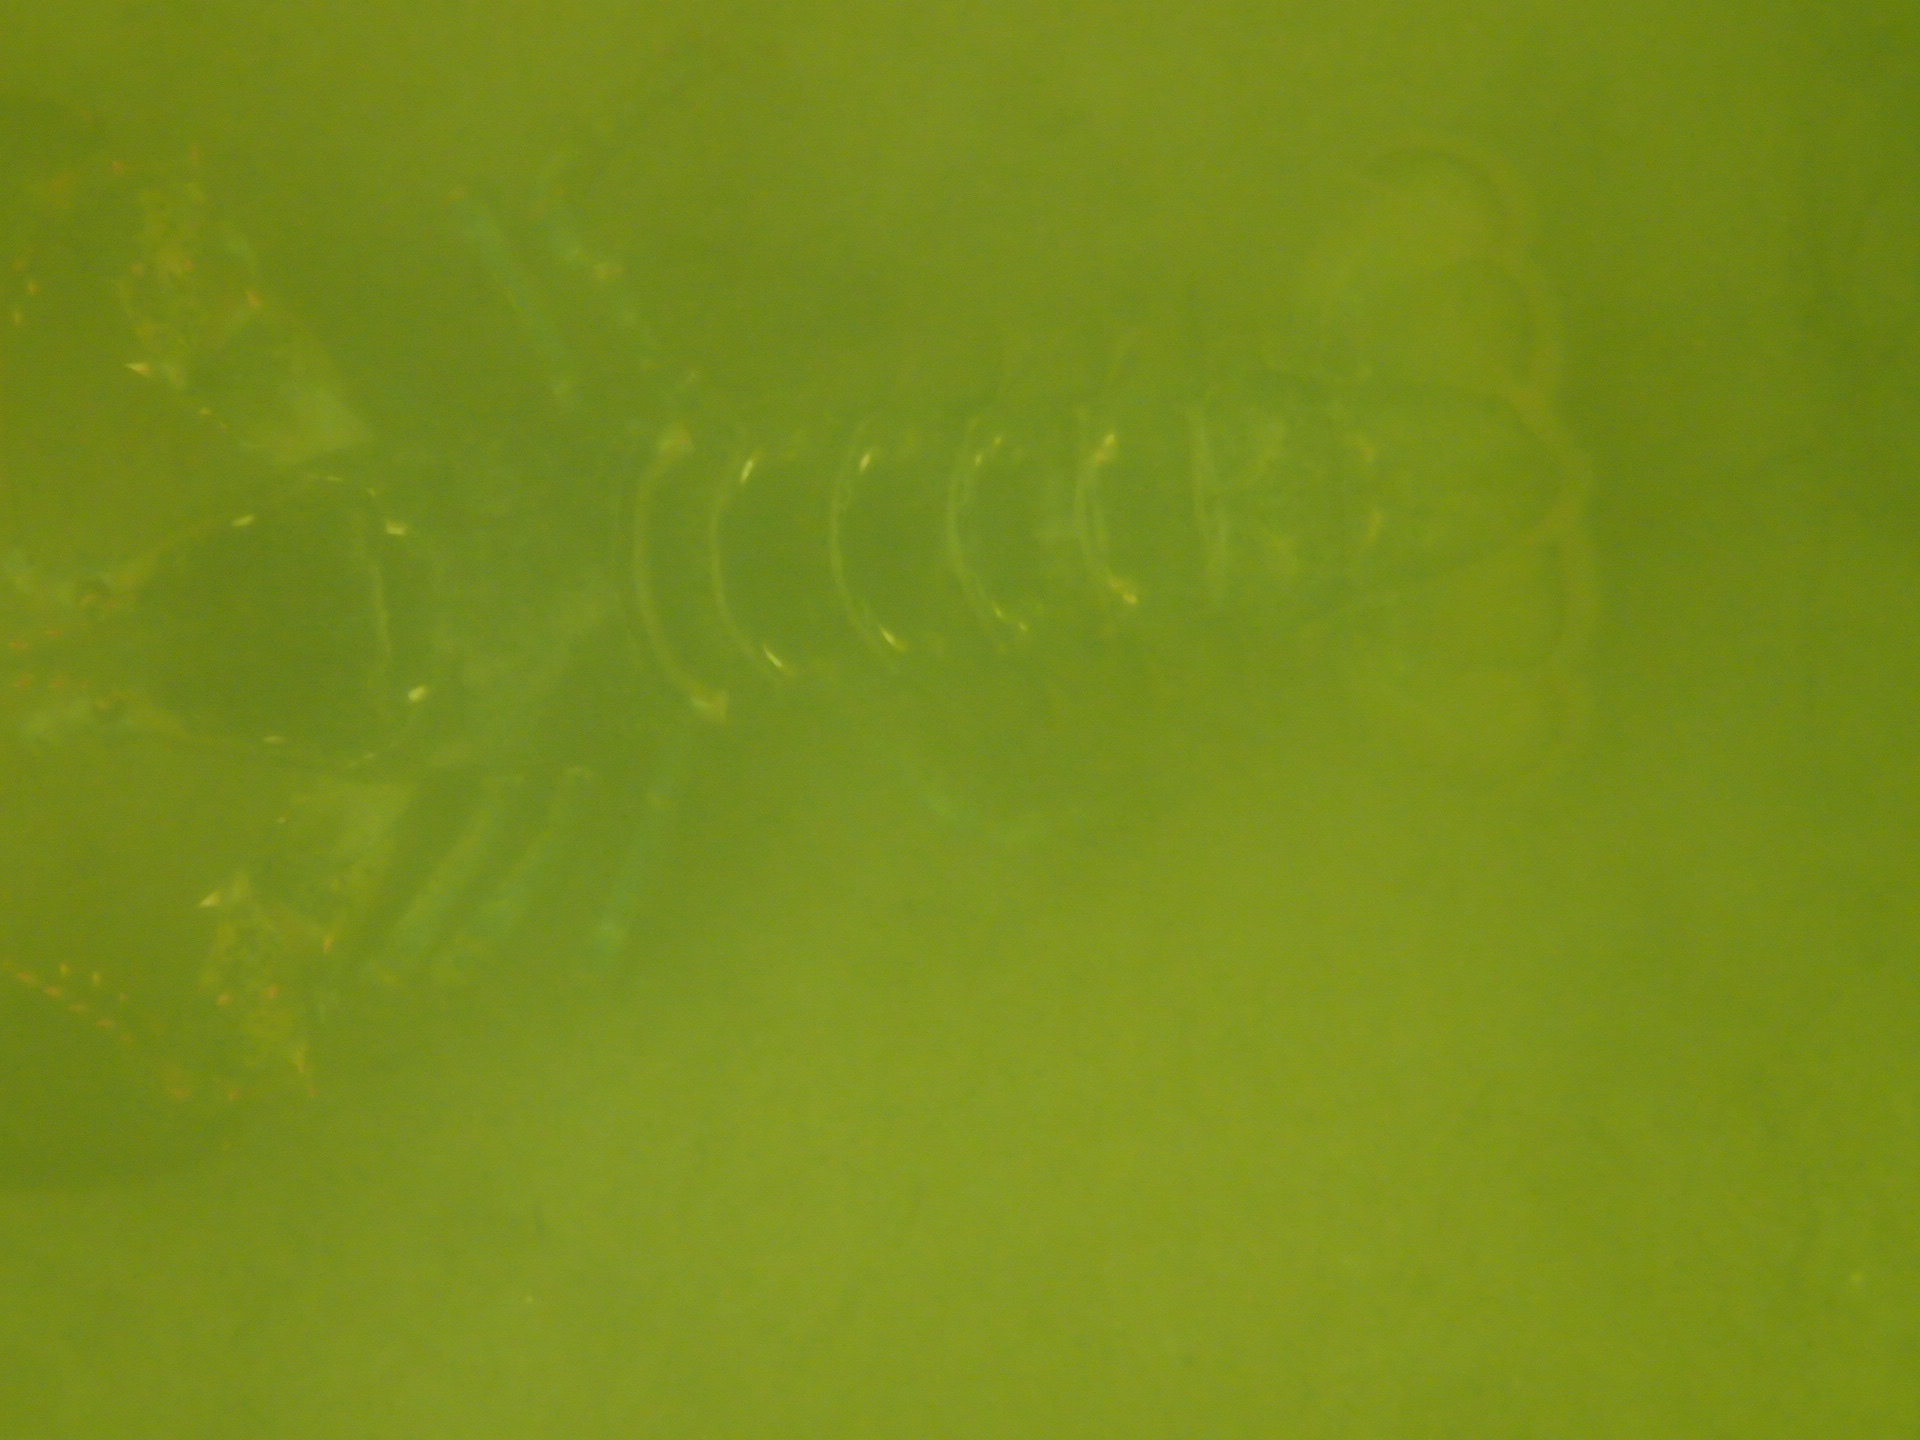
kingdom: Animalia
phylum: Arthropoda
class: Malacostraca
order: Decapoda
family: Nephropidae
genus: Homarus
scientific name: Homarus americanus
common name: American lobster
